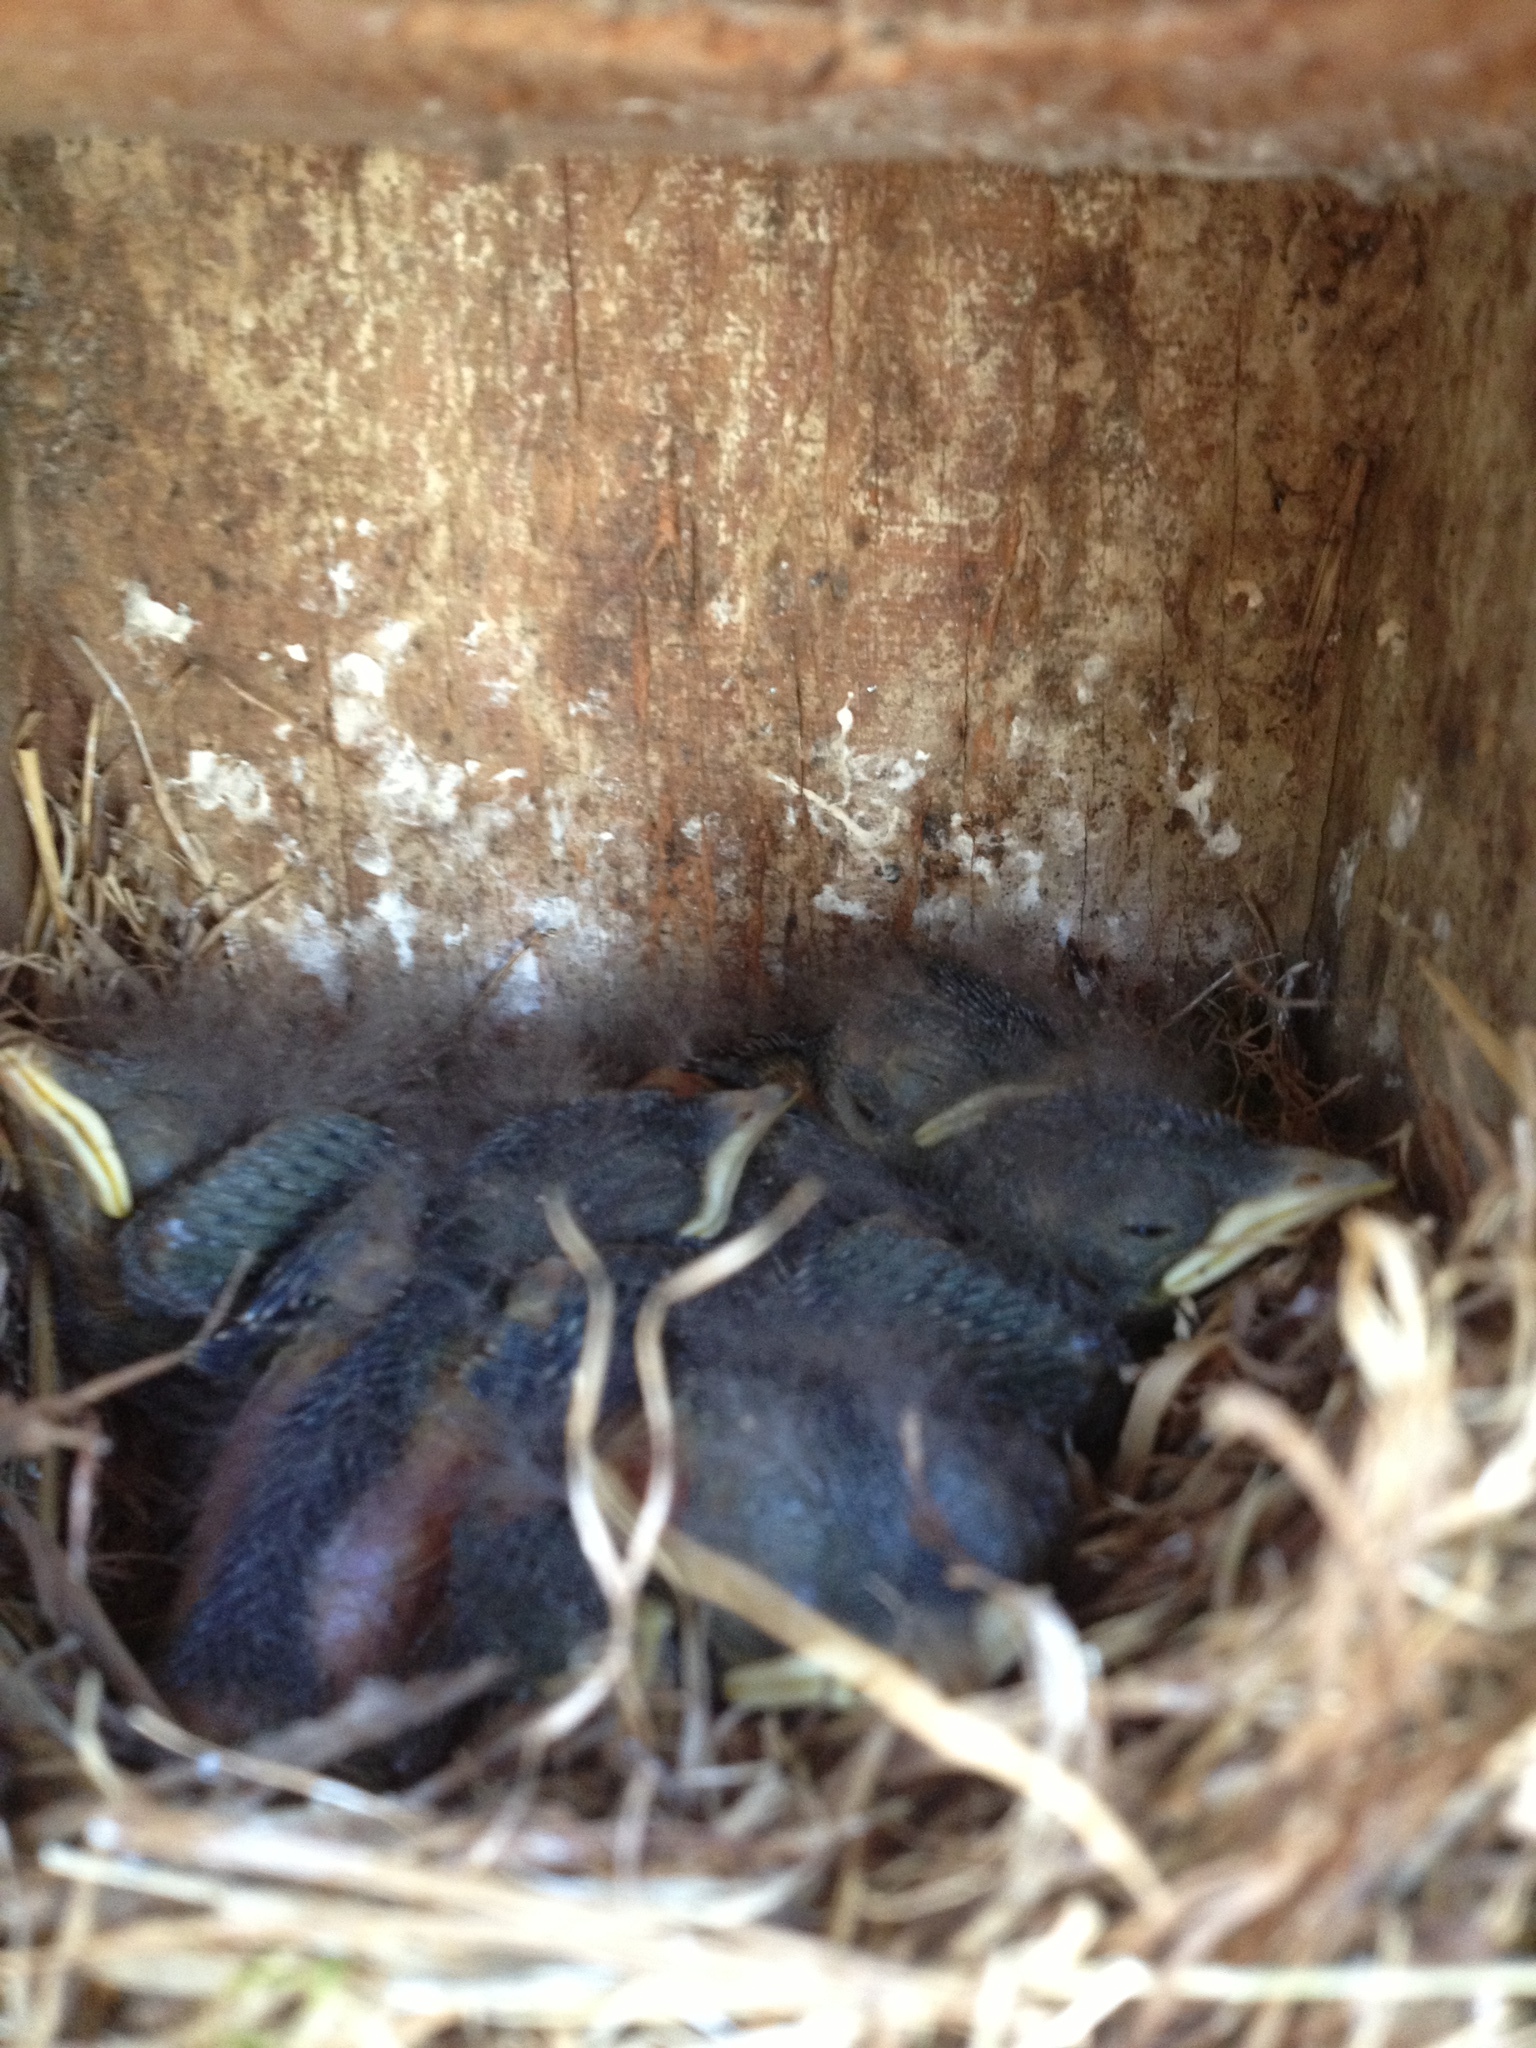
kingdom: Animalia
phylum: Chordata
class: Aves
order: Passeriformes
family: Turdidae
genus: Sialia
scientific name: Sialia mexicana
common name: Western bluebird
